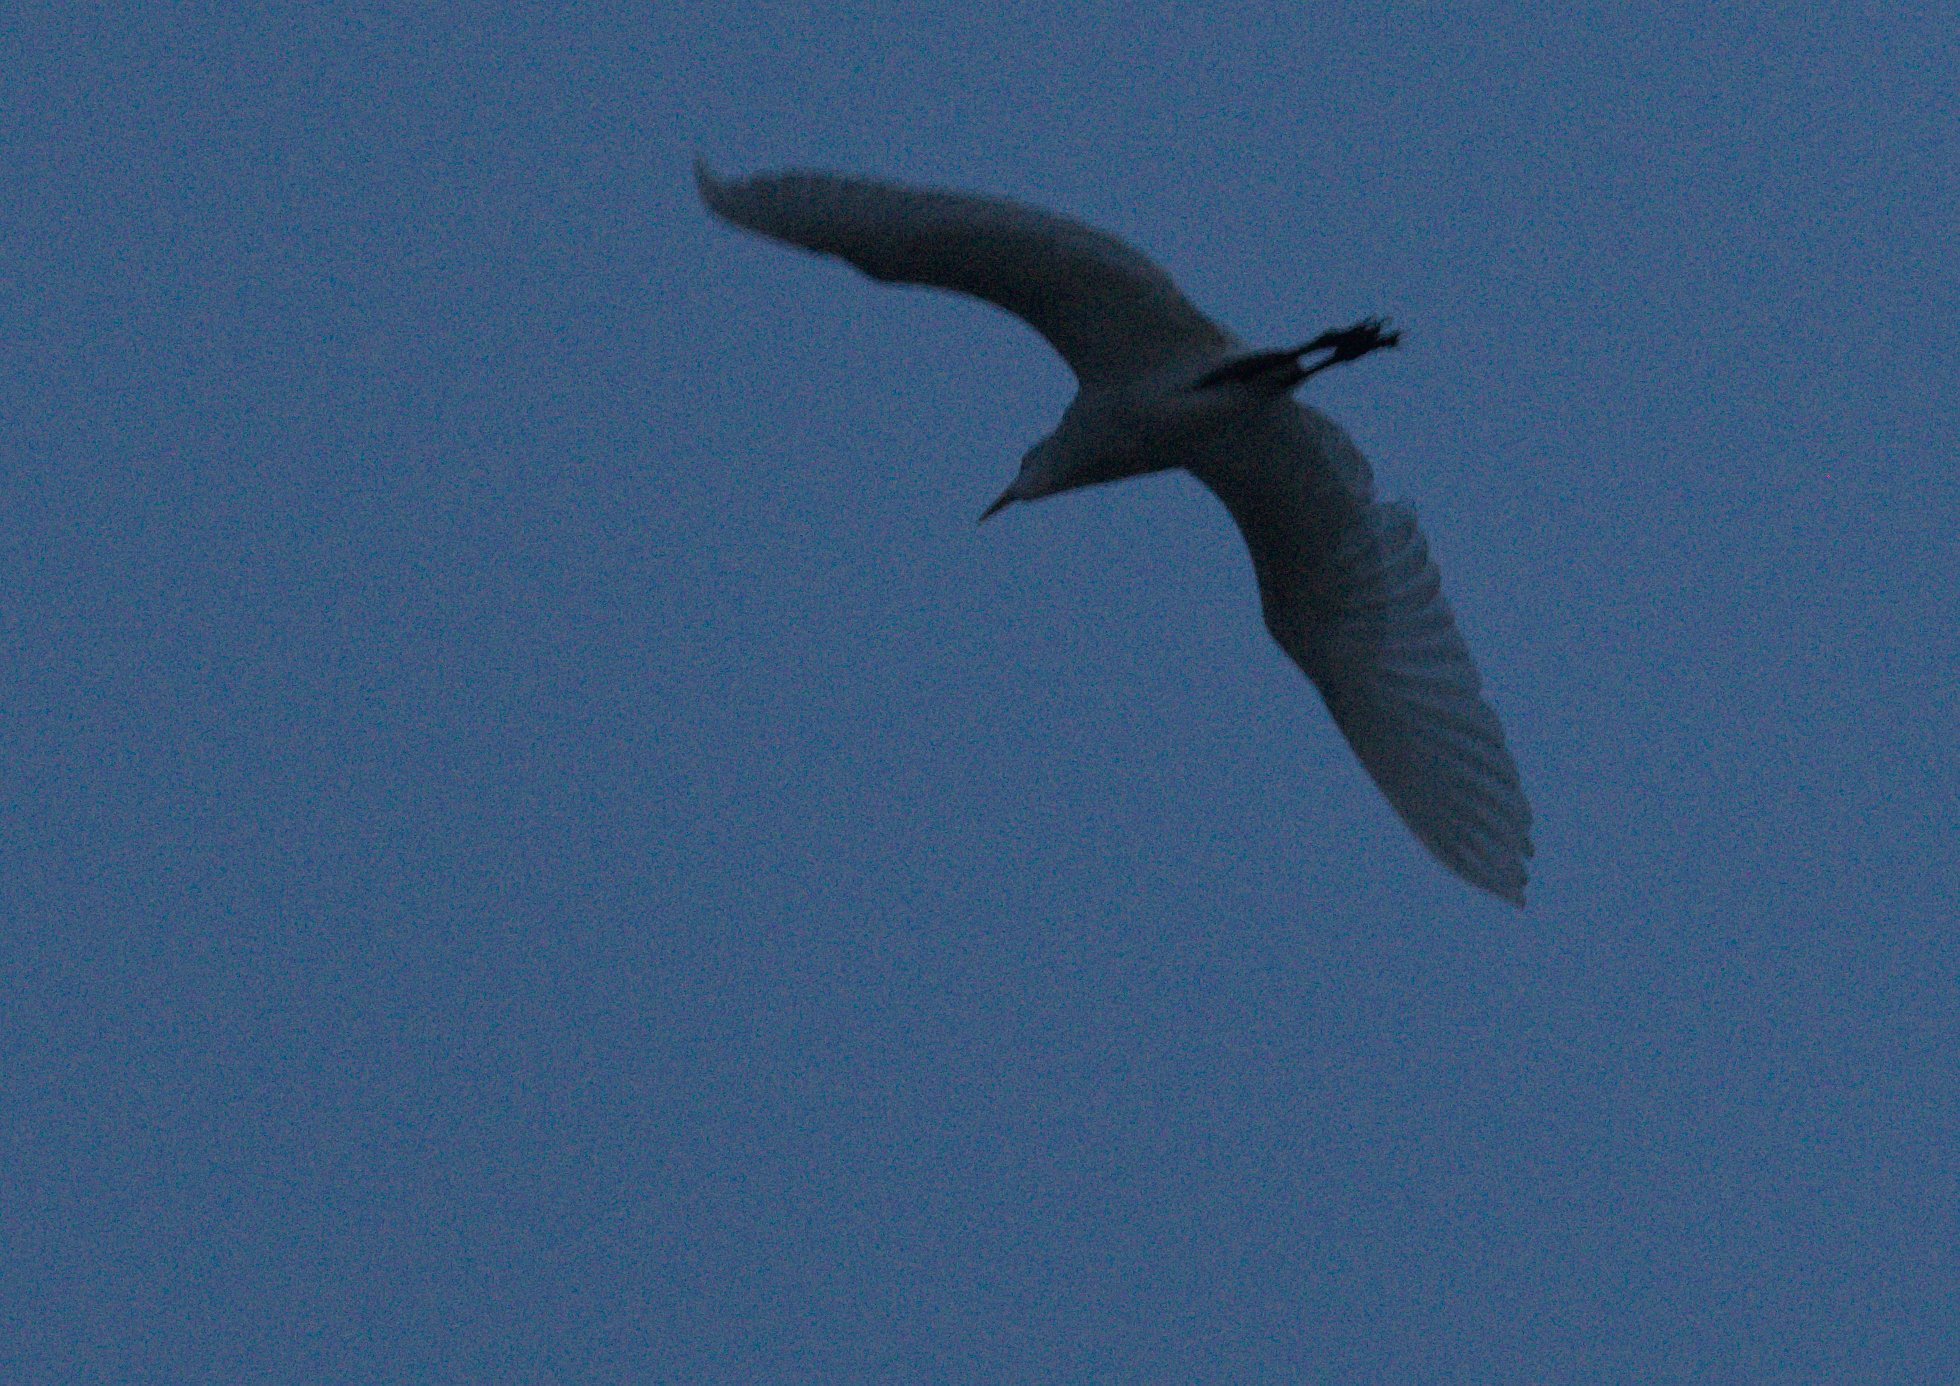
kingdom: Animalia
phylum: Chordata
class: Aves
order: Pelecaniformes
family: Ardeidae
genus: Bubulcus
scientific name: Bubulcus coromandus
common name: Eastern cattle egret
